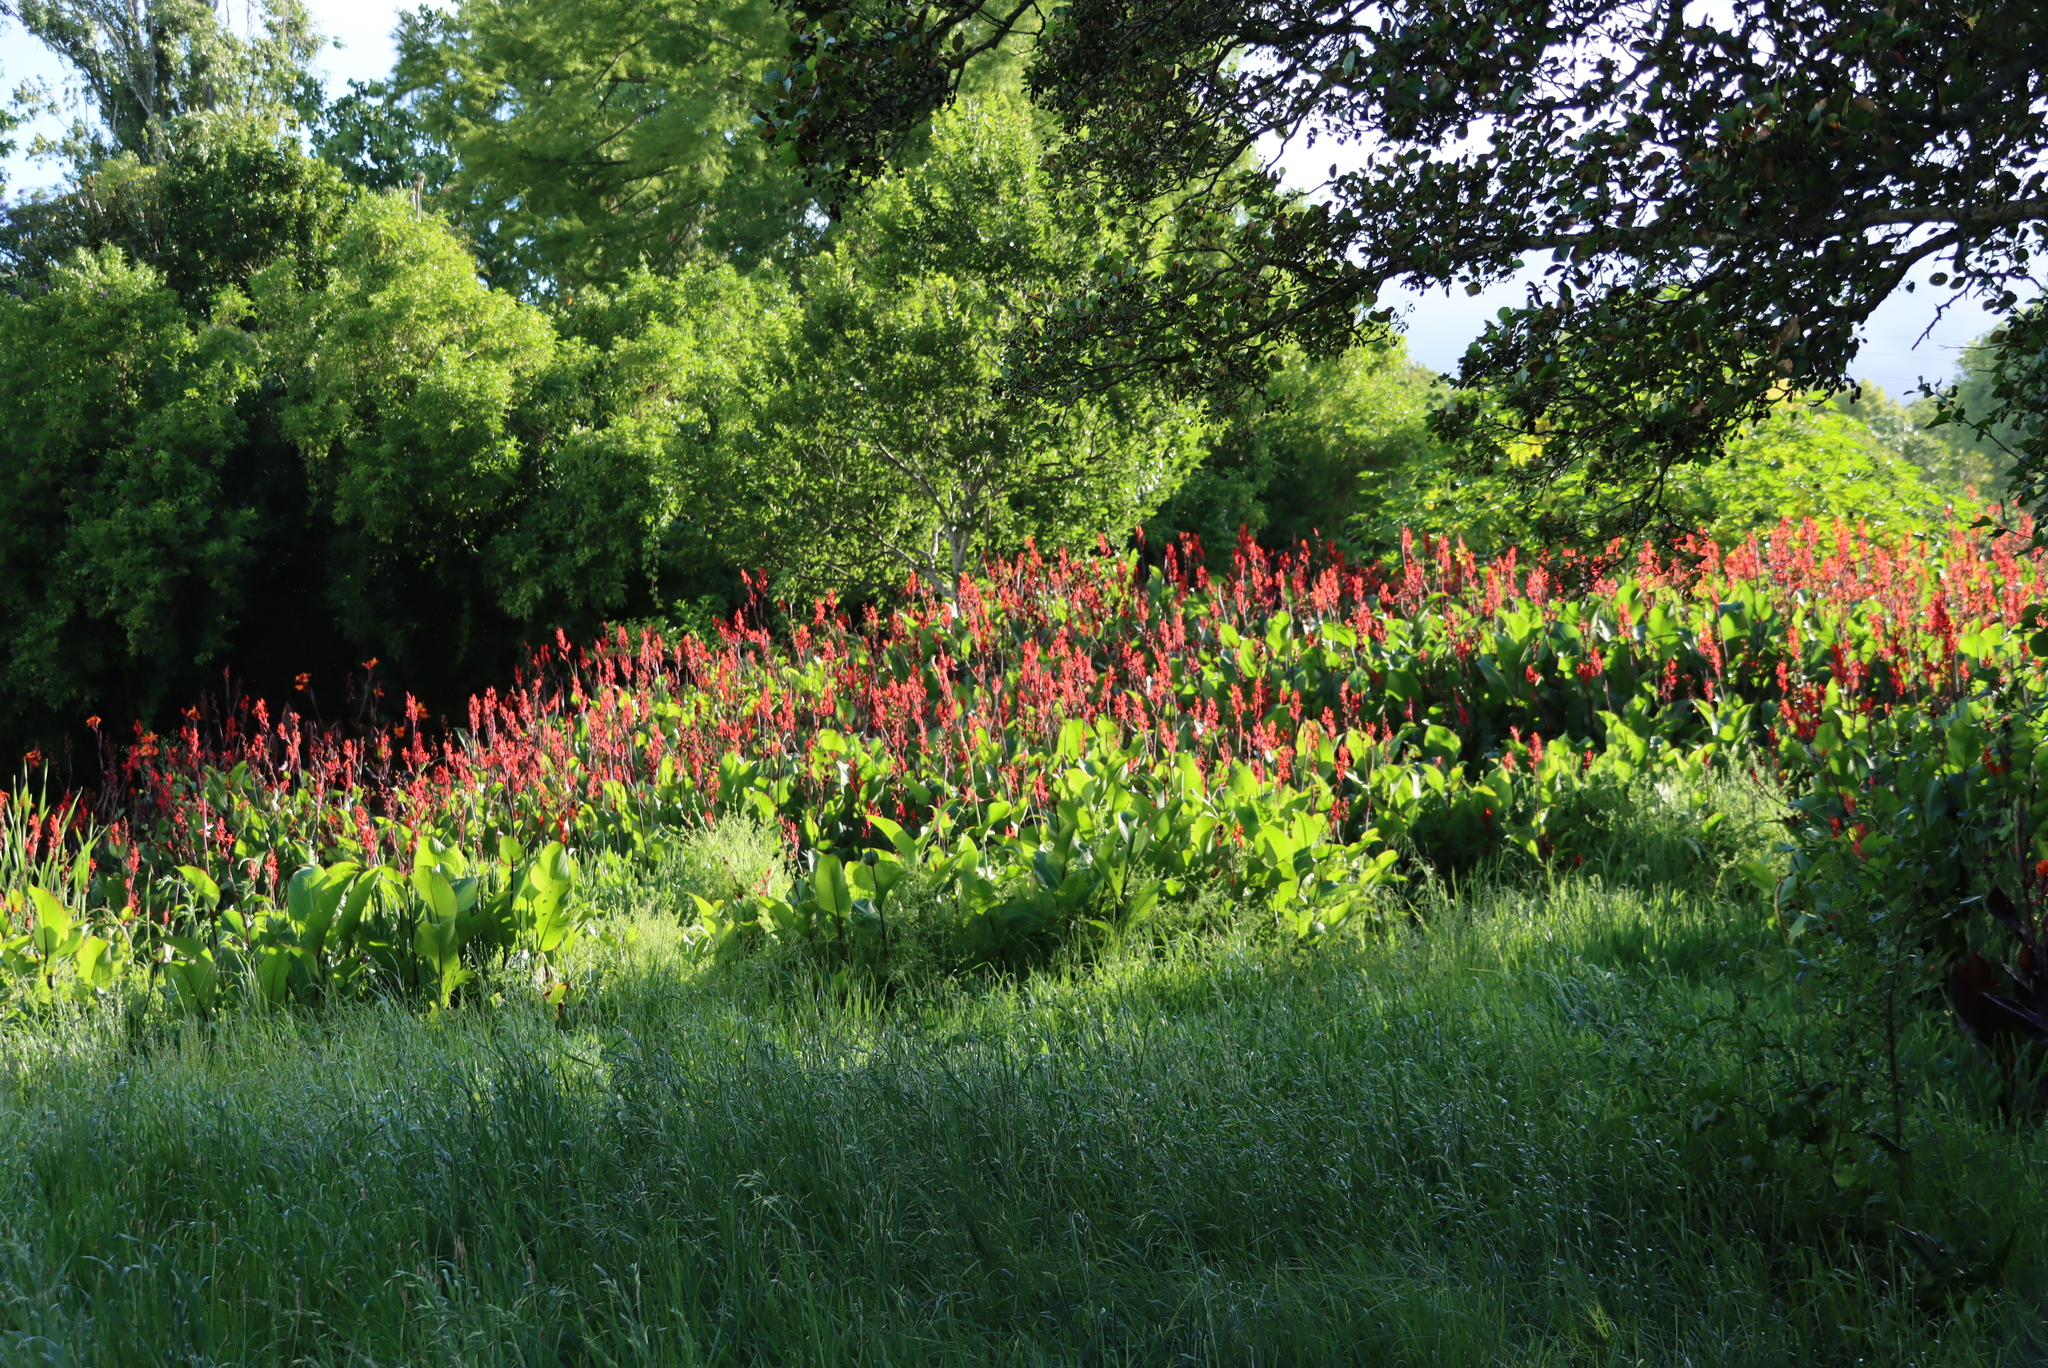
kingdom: Plantae
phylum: Tracheophyta
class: Liliopsida
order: Zingiberales
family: Cannaceae
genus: Canna
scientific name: Canna indica
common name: Indian shot
